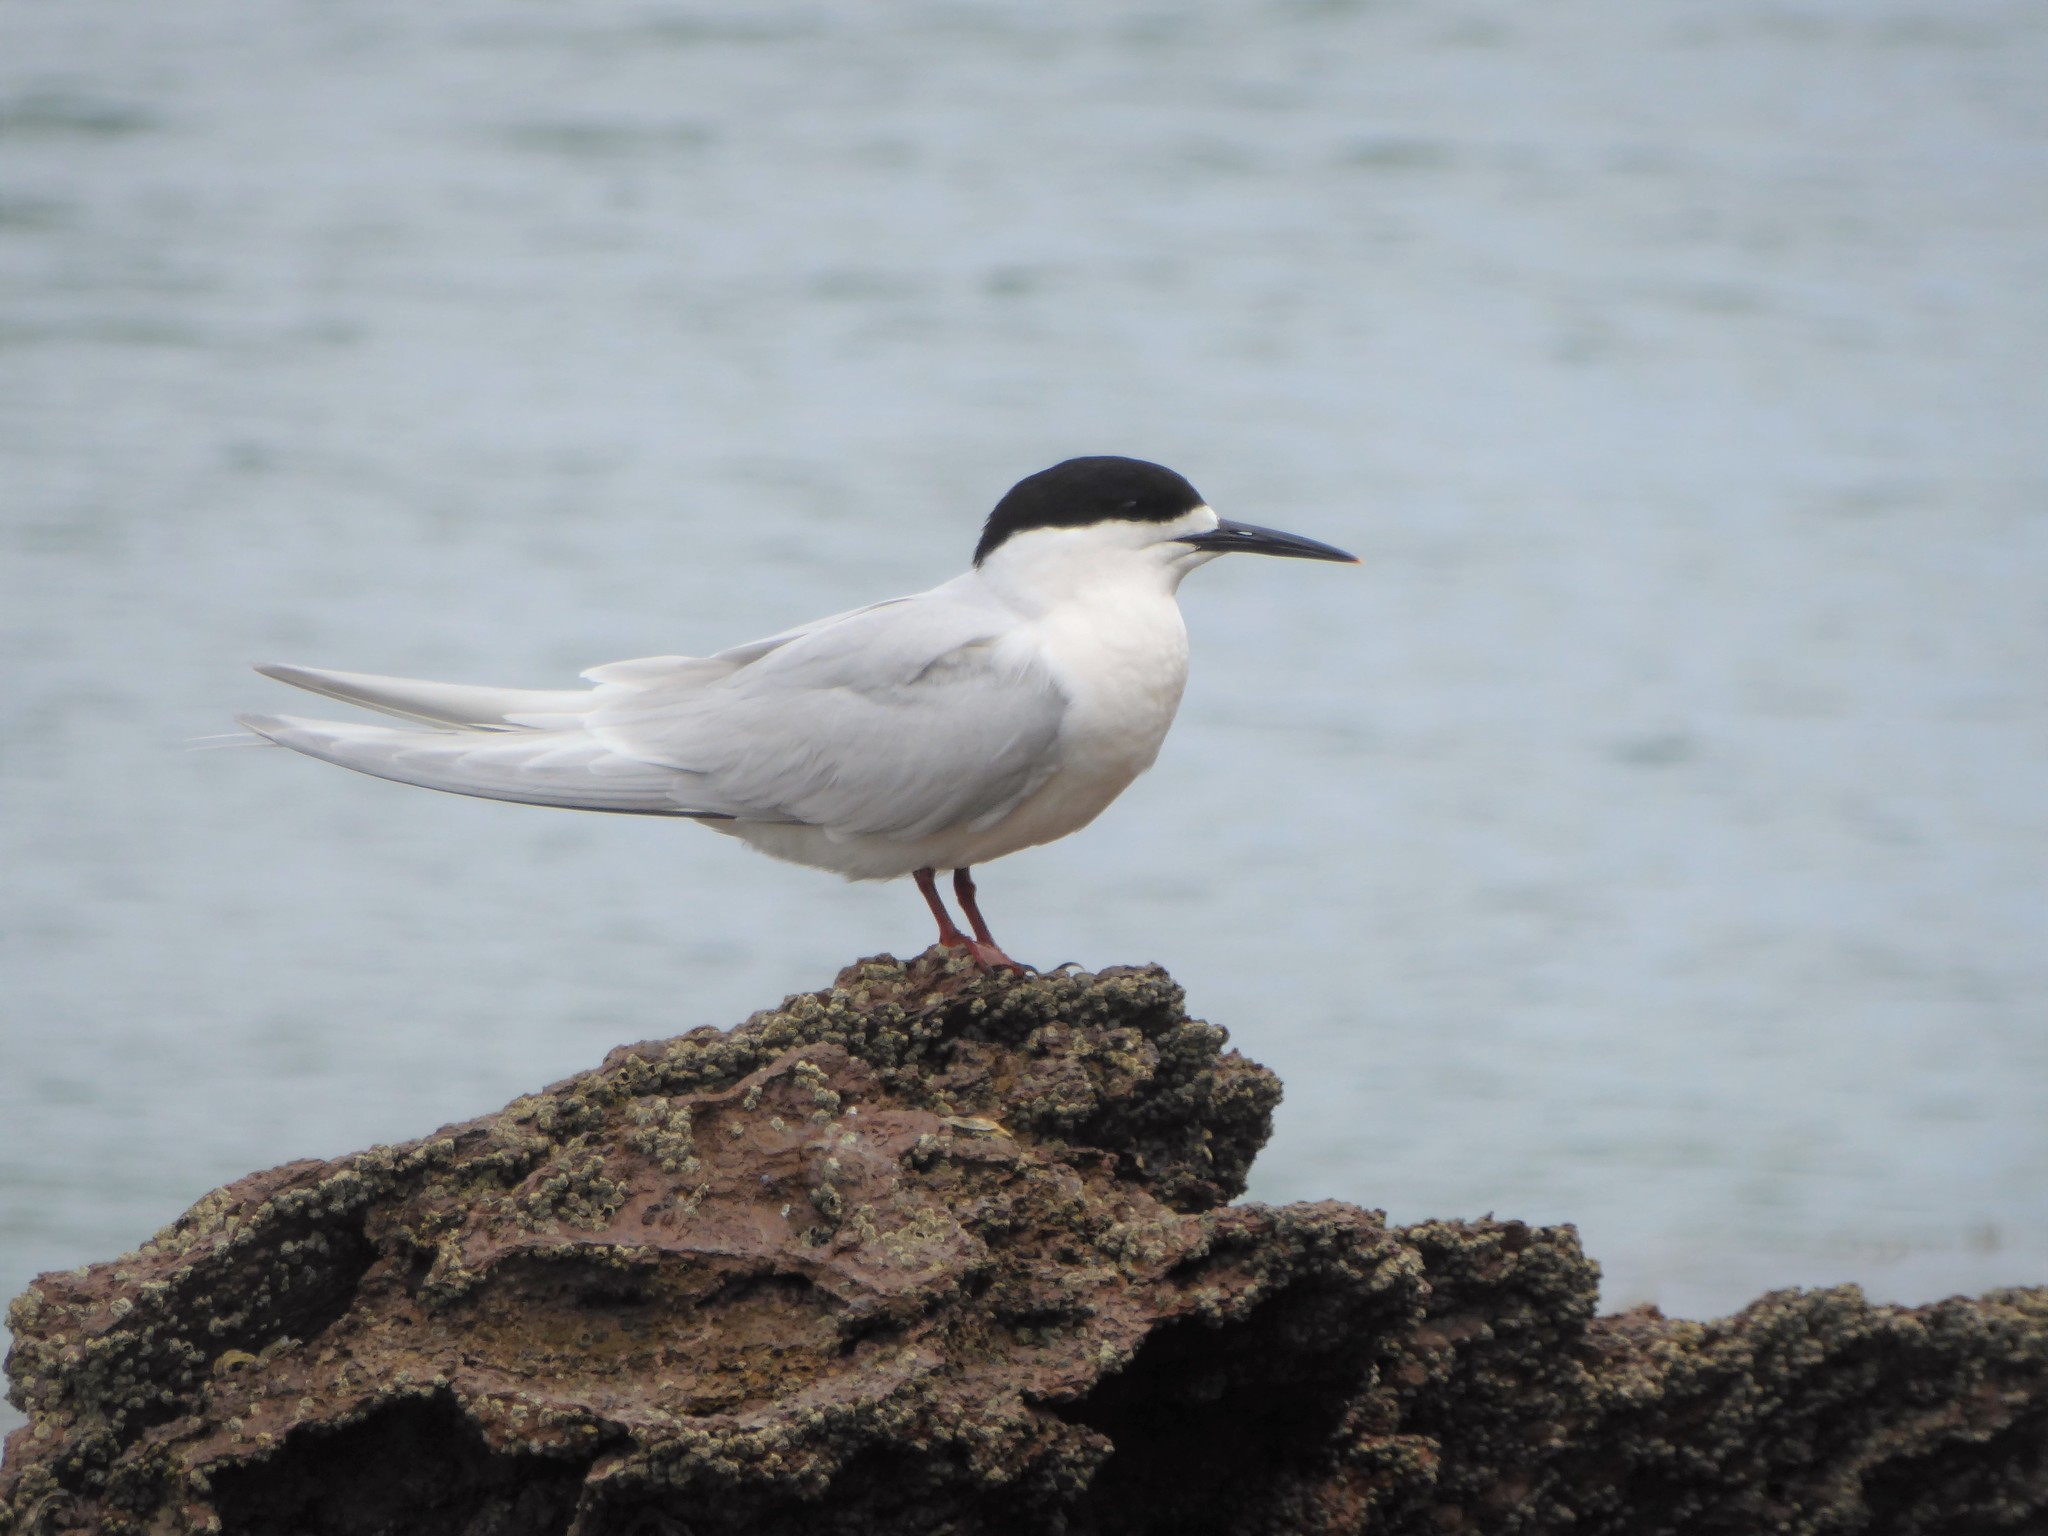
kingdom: Animalia
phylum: Chordata
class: Aves
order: Charadriiformes
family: Laridae
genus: Sterna
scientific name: Sterna striata
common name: White-fronted tern
